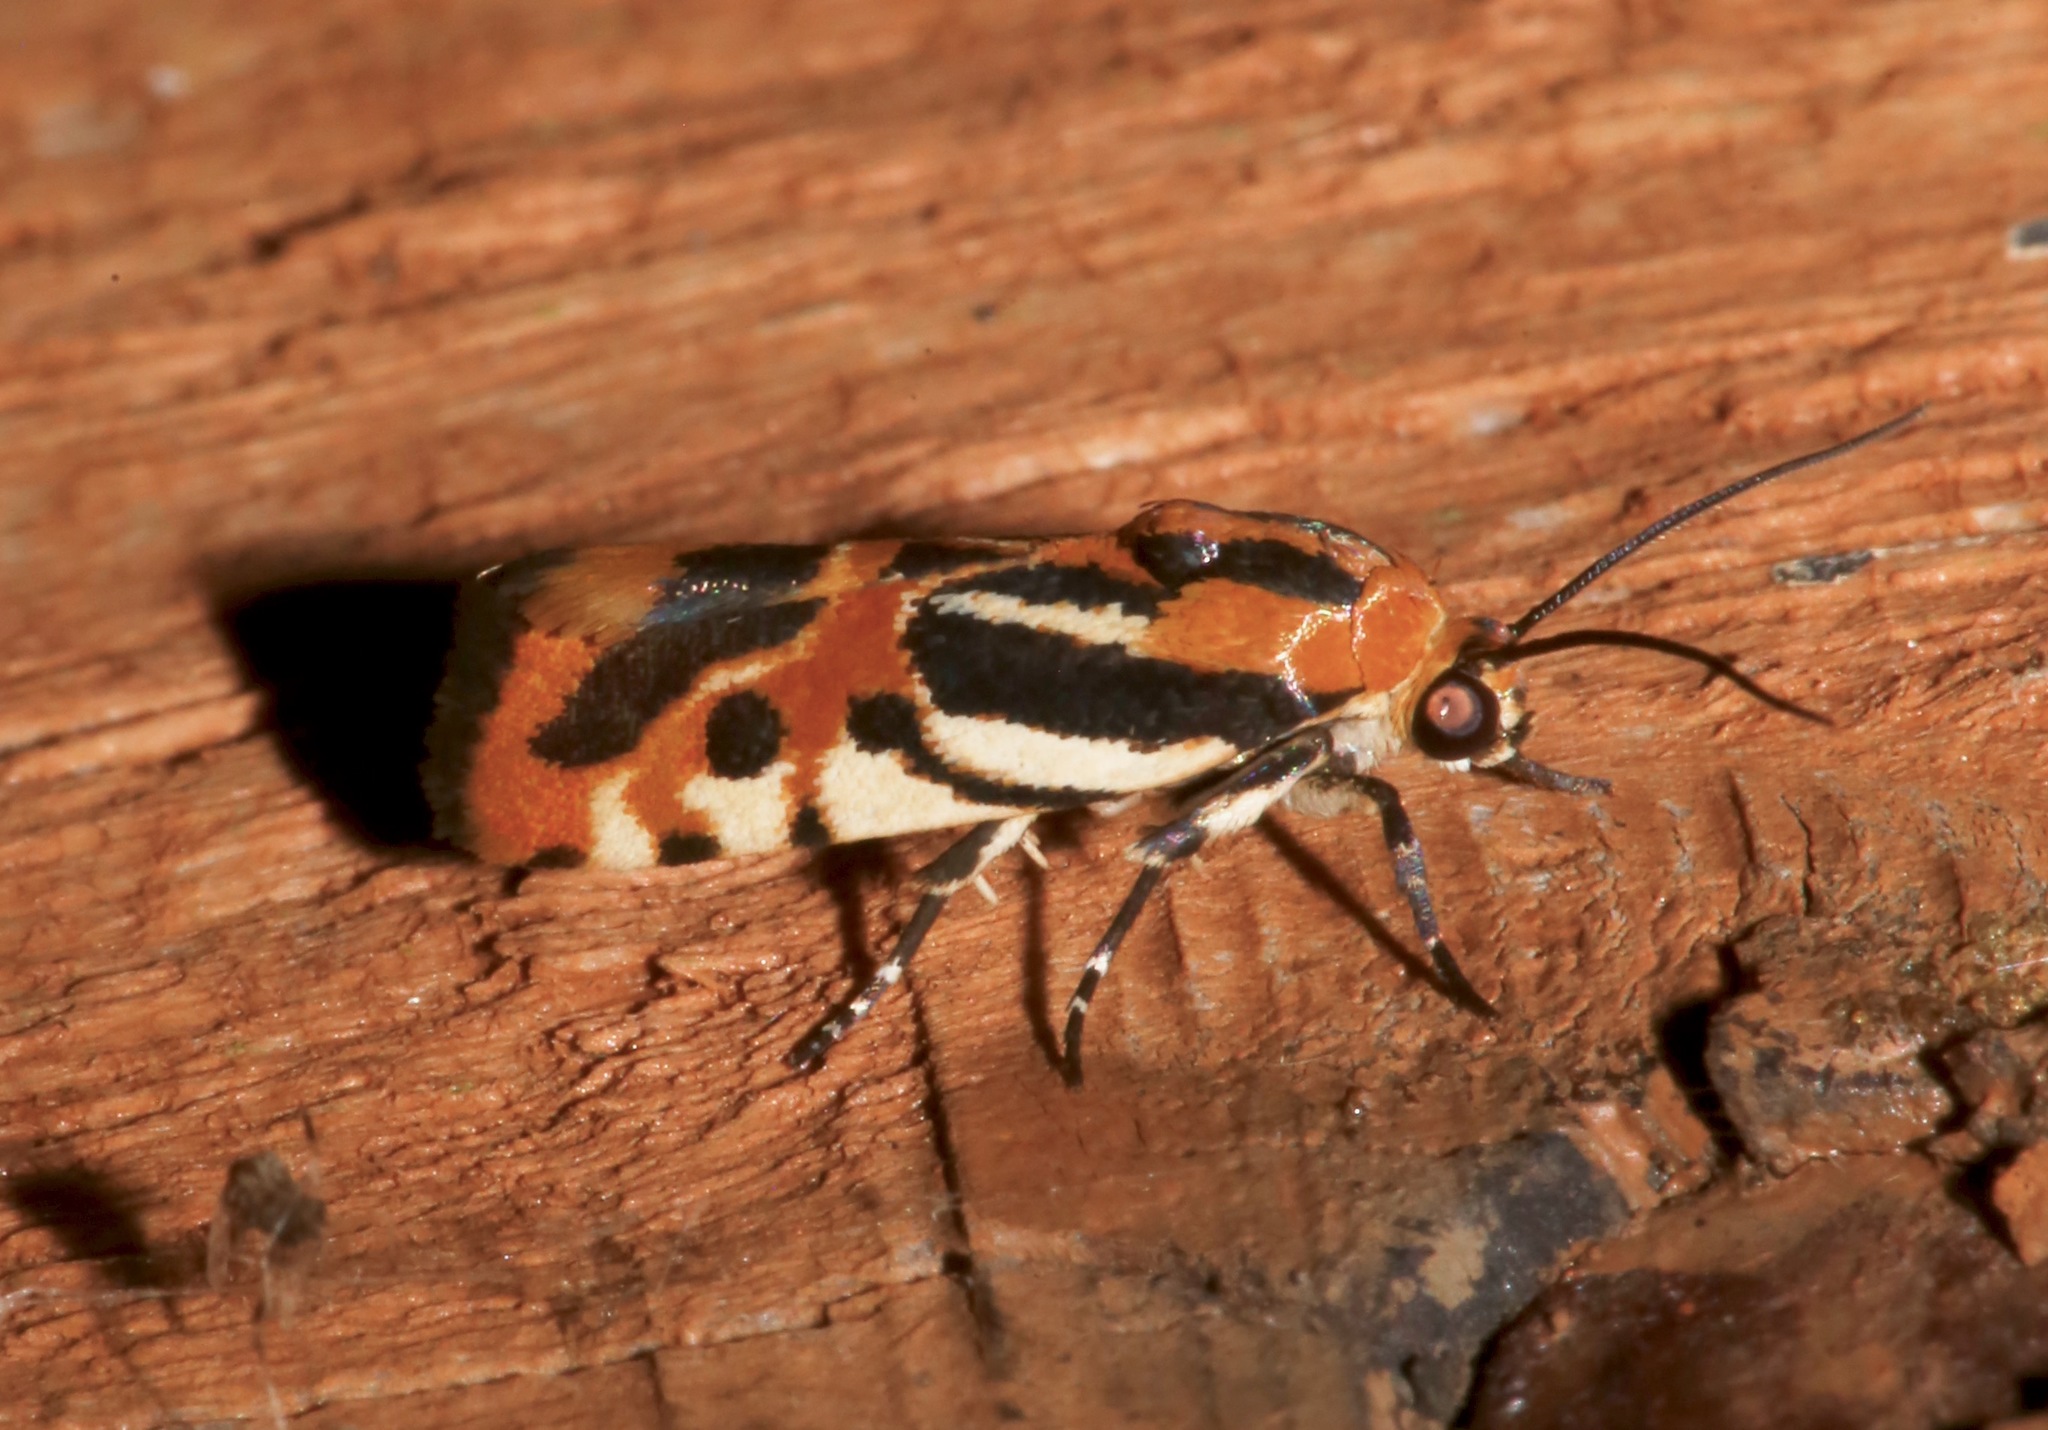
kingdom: Animalia
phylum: Arthropoda
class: Insecta
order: Lepidoptera
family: Noctuidae
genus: Acontia
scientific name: Acontia onagrus
